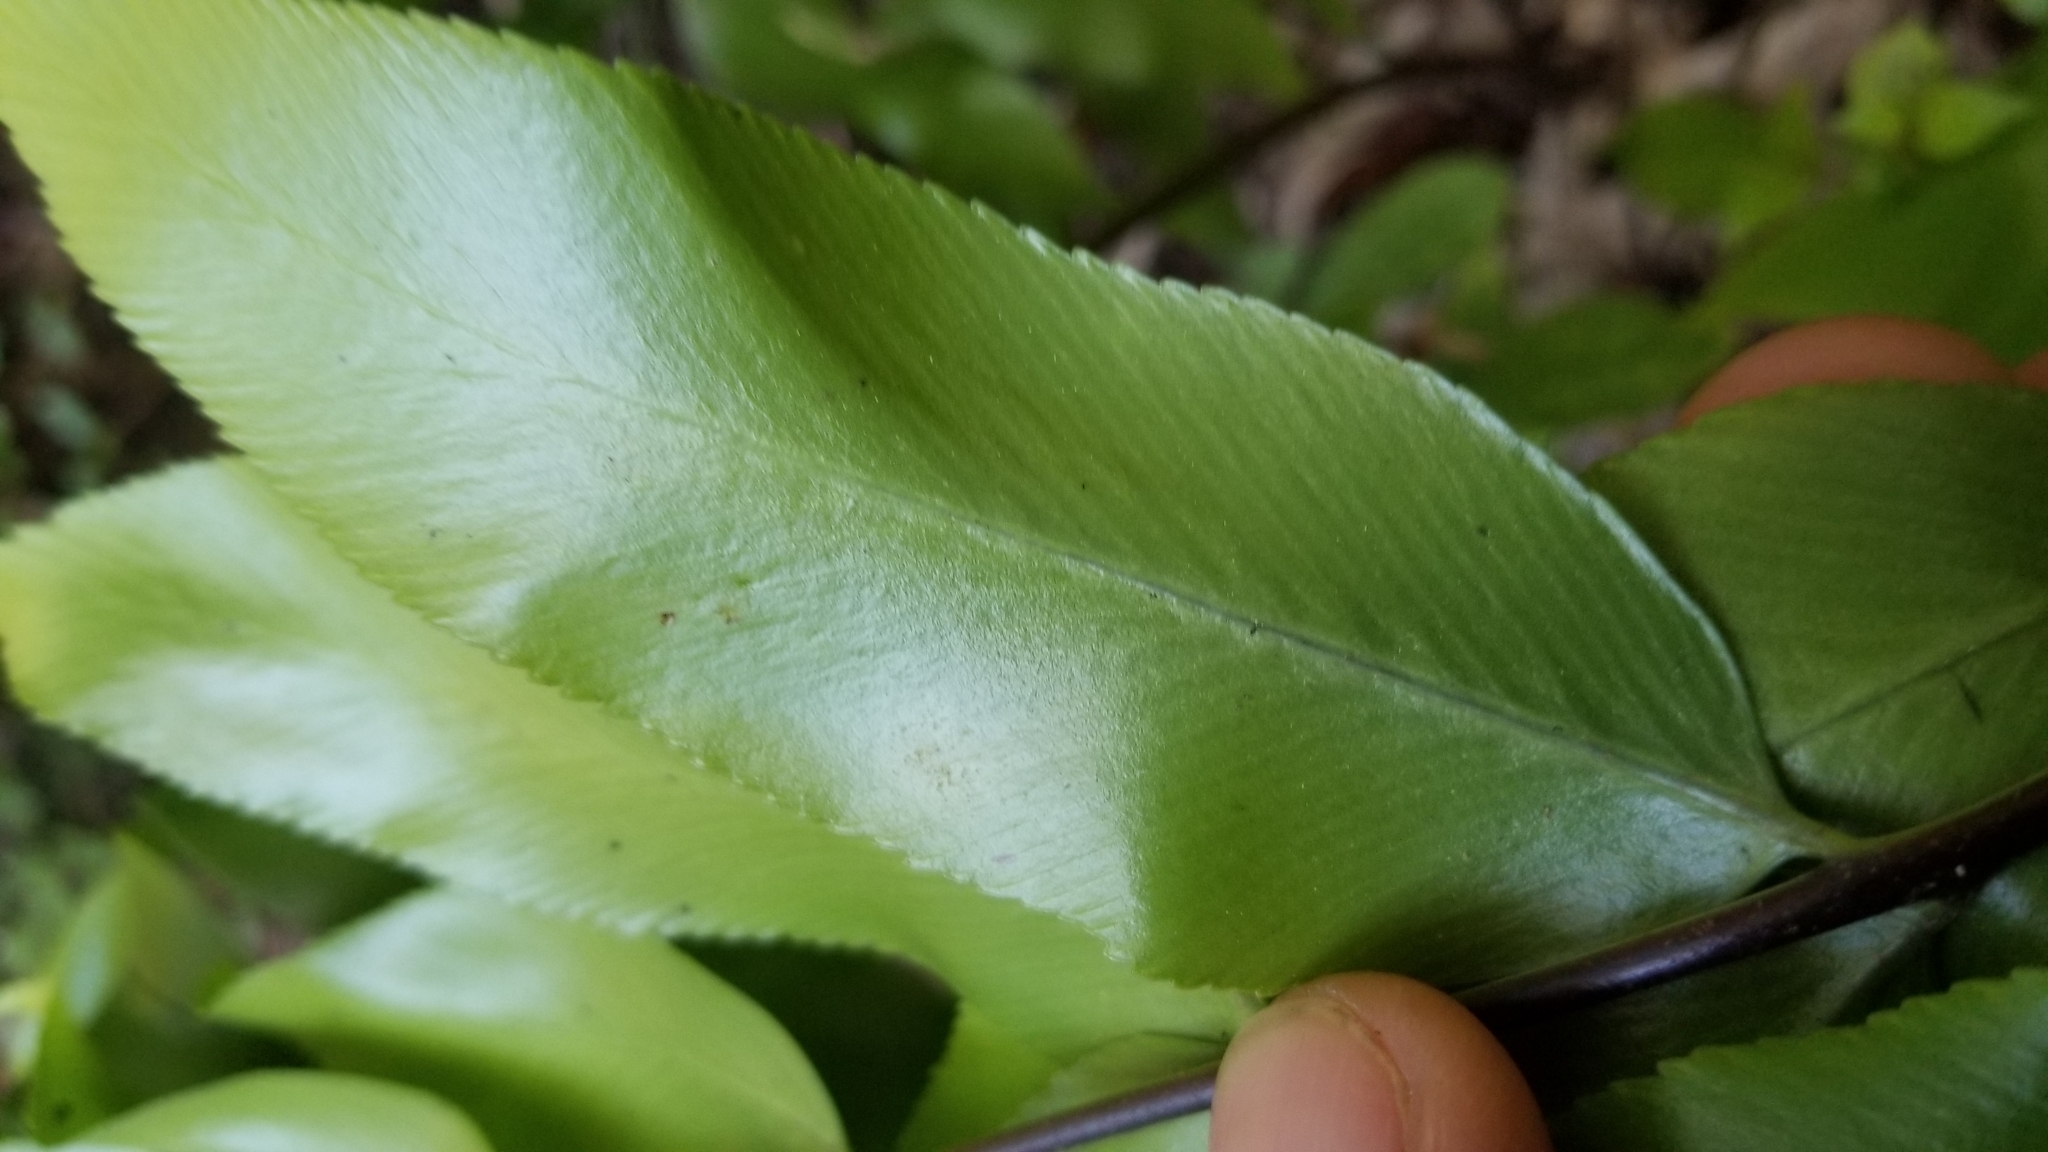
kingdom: Plantae
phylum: Tracheophyta
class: Polypodiopsida
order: Polypodiales
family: Aspleniaceae
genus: Asplenium
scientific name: Asplenium oblongifolium
